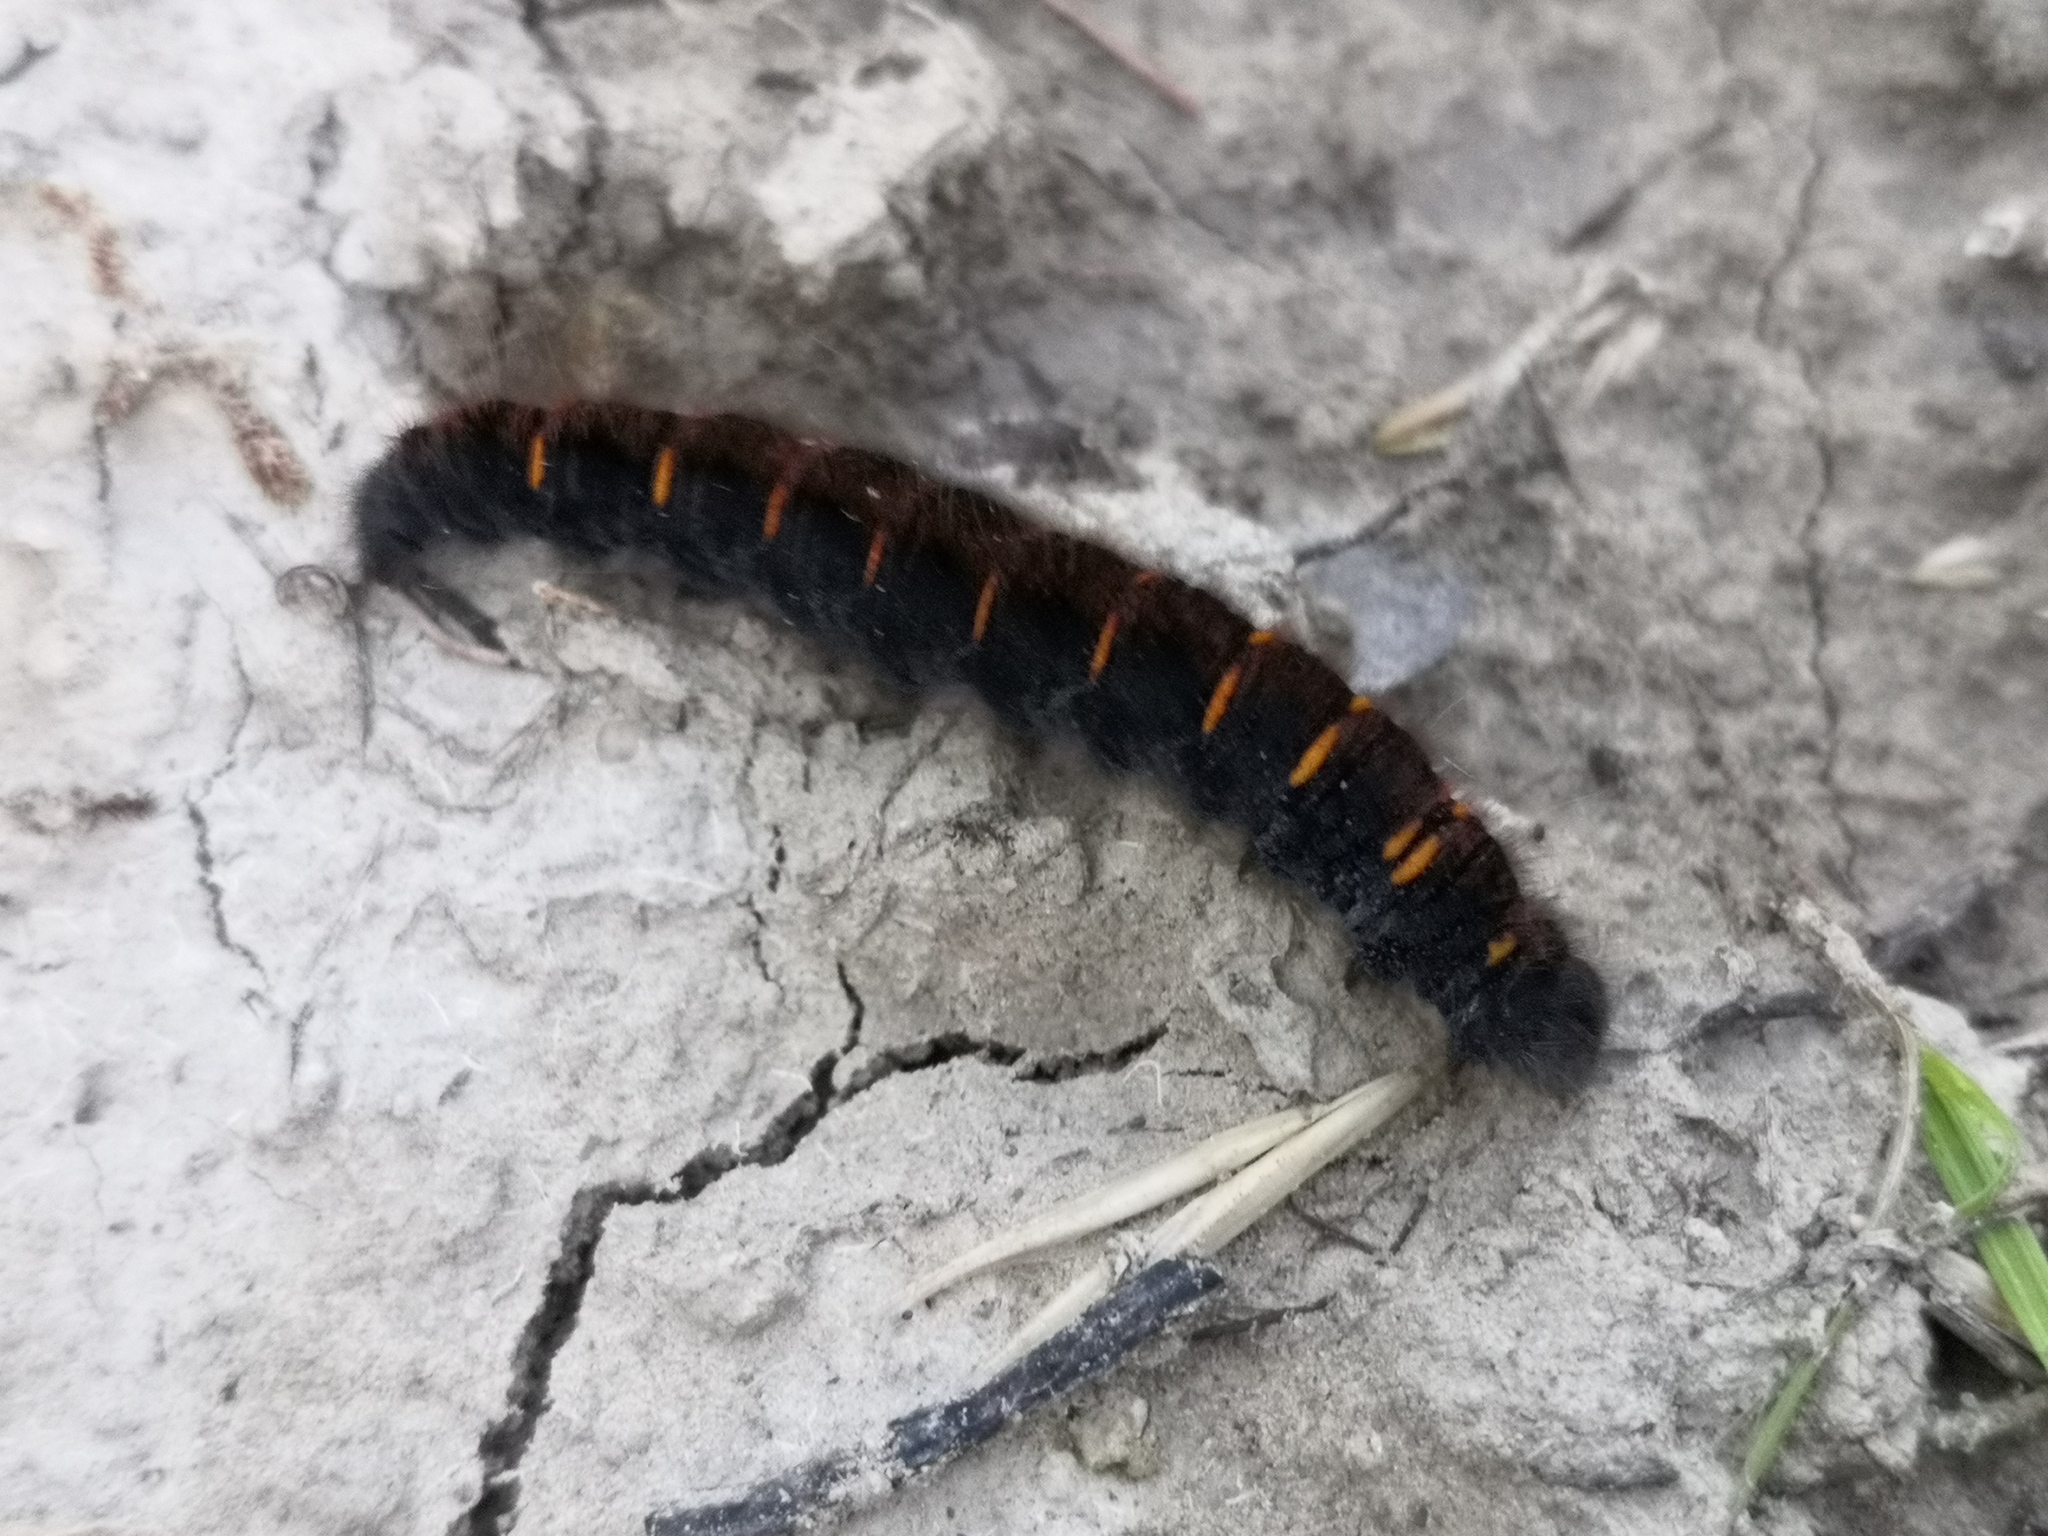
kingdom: Animalia
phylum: Arthropoda
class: Insecta
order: Lepidoptera
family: Lasiocampidae
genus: Macrothylacia
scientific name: Macrothylacia rubi
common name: Fox moth
